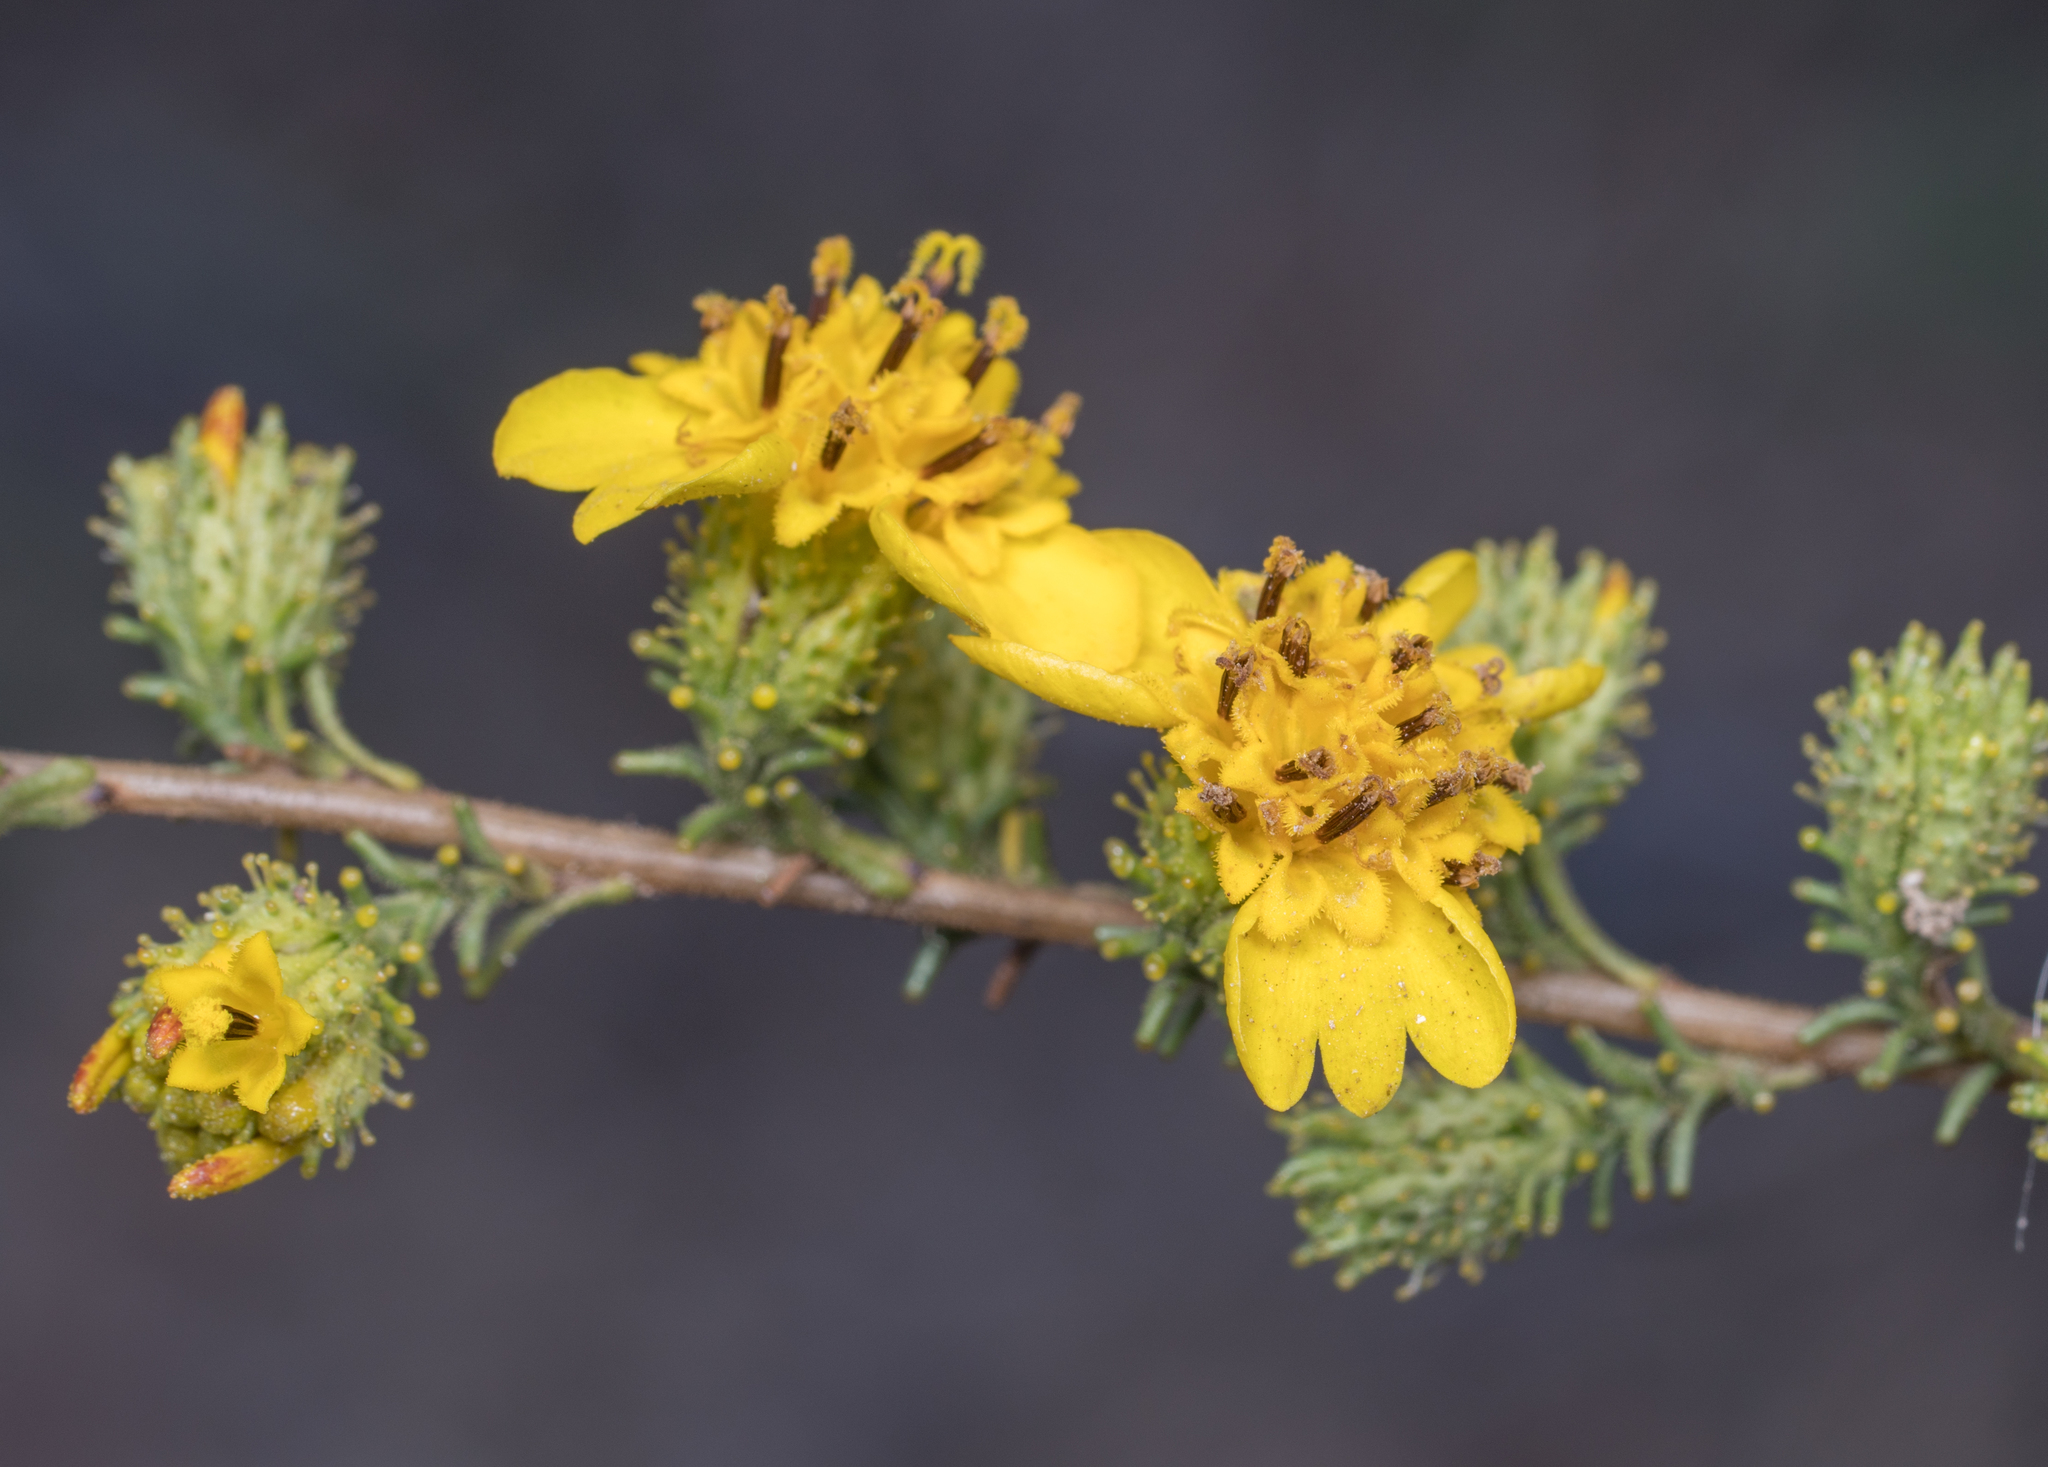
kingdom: Plantae
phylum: Tracheophyta
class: Magnoliopsida
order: Asterales
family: Asteraceae
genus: Holocarpha
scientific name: Holocarpha virgata
